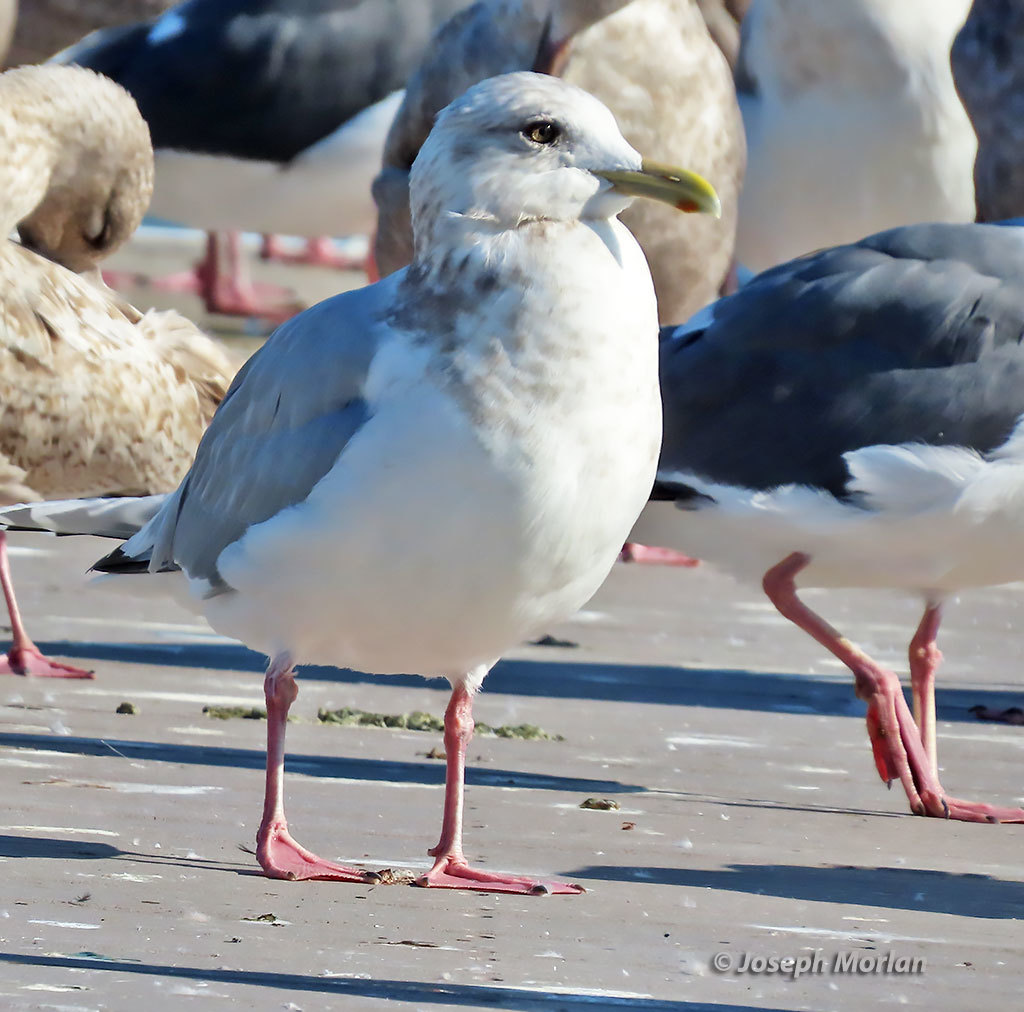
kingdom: Animalia
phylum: Chordata
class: Aves
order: Charadriiformes
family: Laridae
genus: Larus
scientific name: Larus glaucoides
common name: Iceland gull
